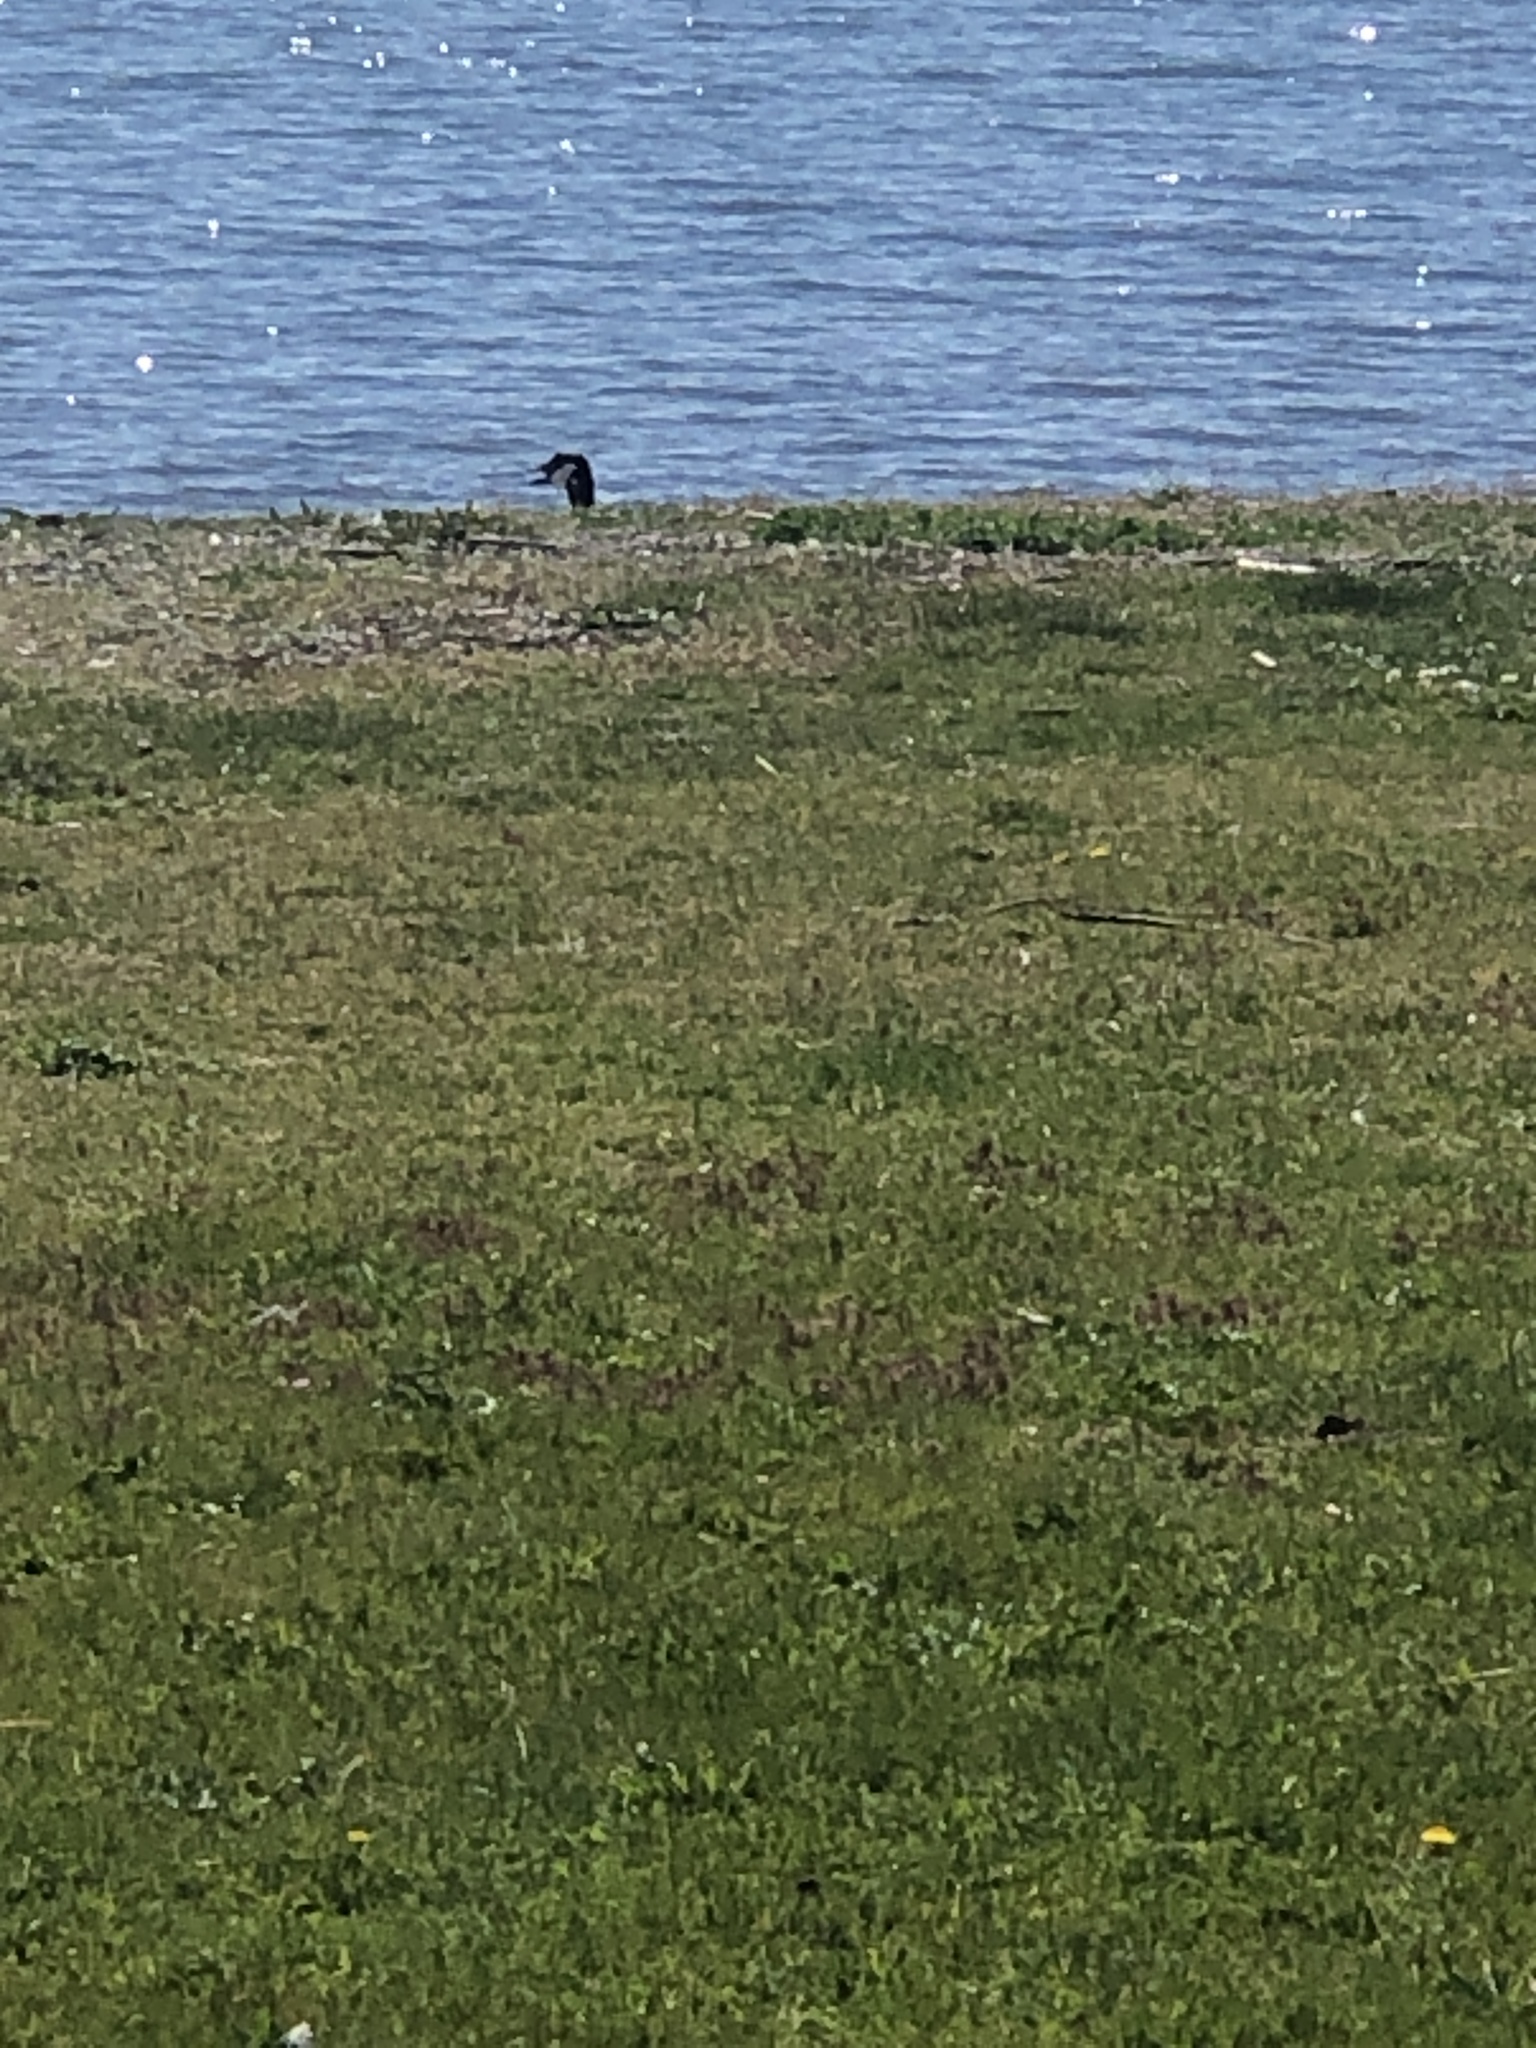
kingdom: Animalia
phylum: Chordata
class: Aves
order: Anseriformes
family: Anatidae
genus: Branta
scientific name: Branta canadensis
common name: Canada goose
